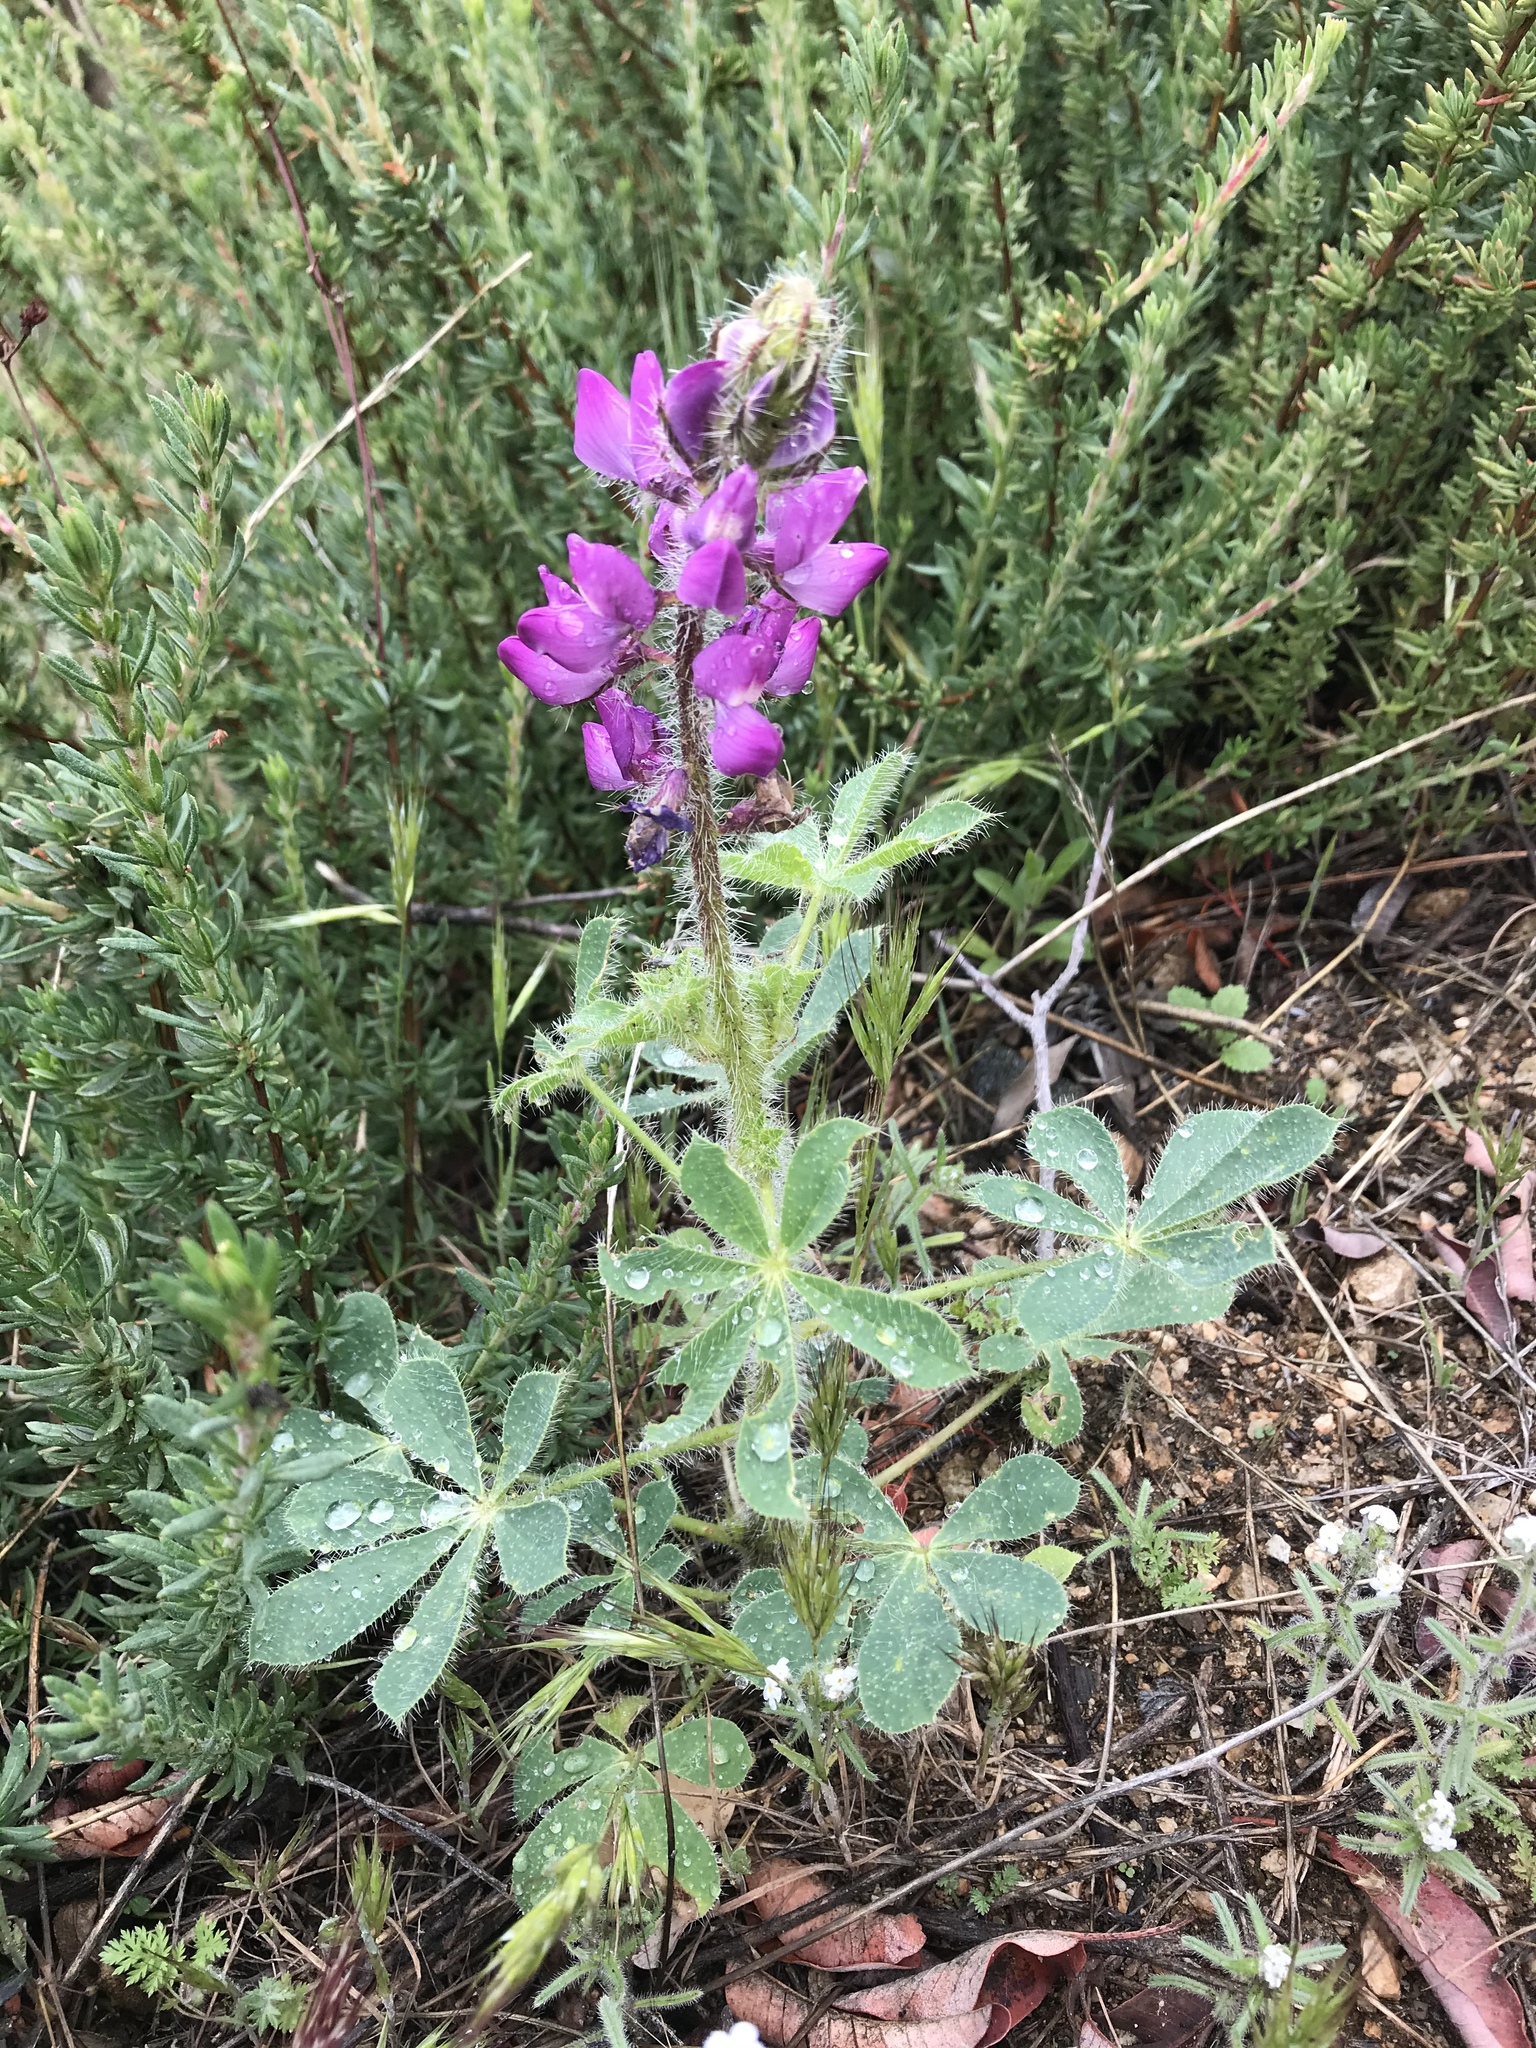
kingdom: Plantae
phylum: Tracheophyta
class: Magnoliopsida
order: Fabales
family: Fabaceae
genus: Lupinus
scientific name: Lupinus hirsutissimus
